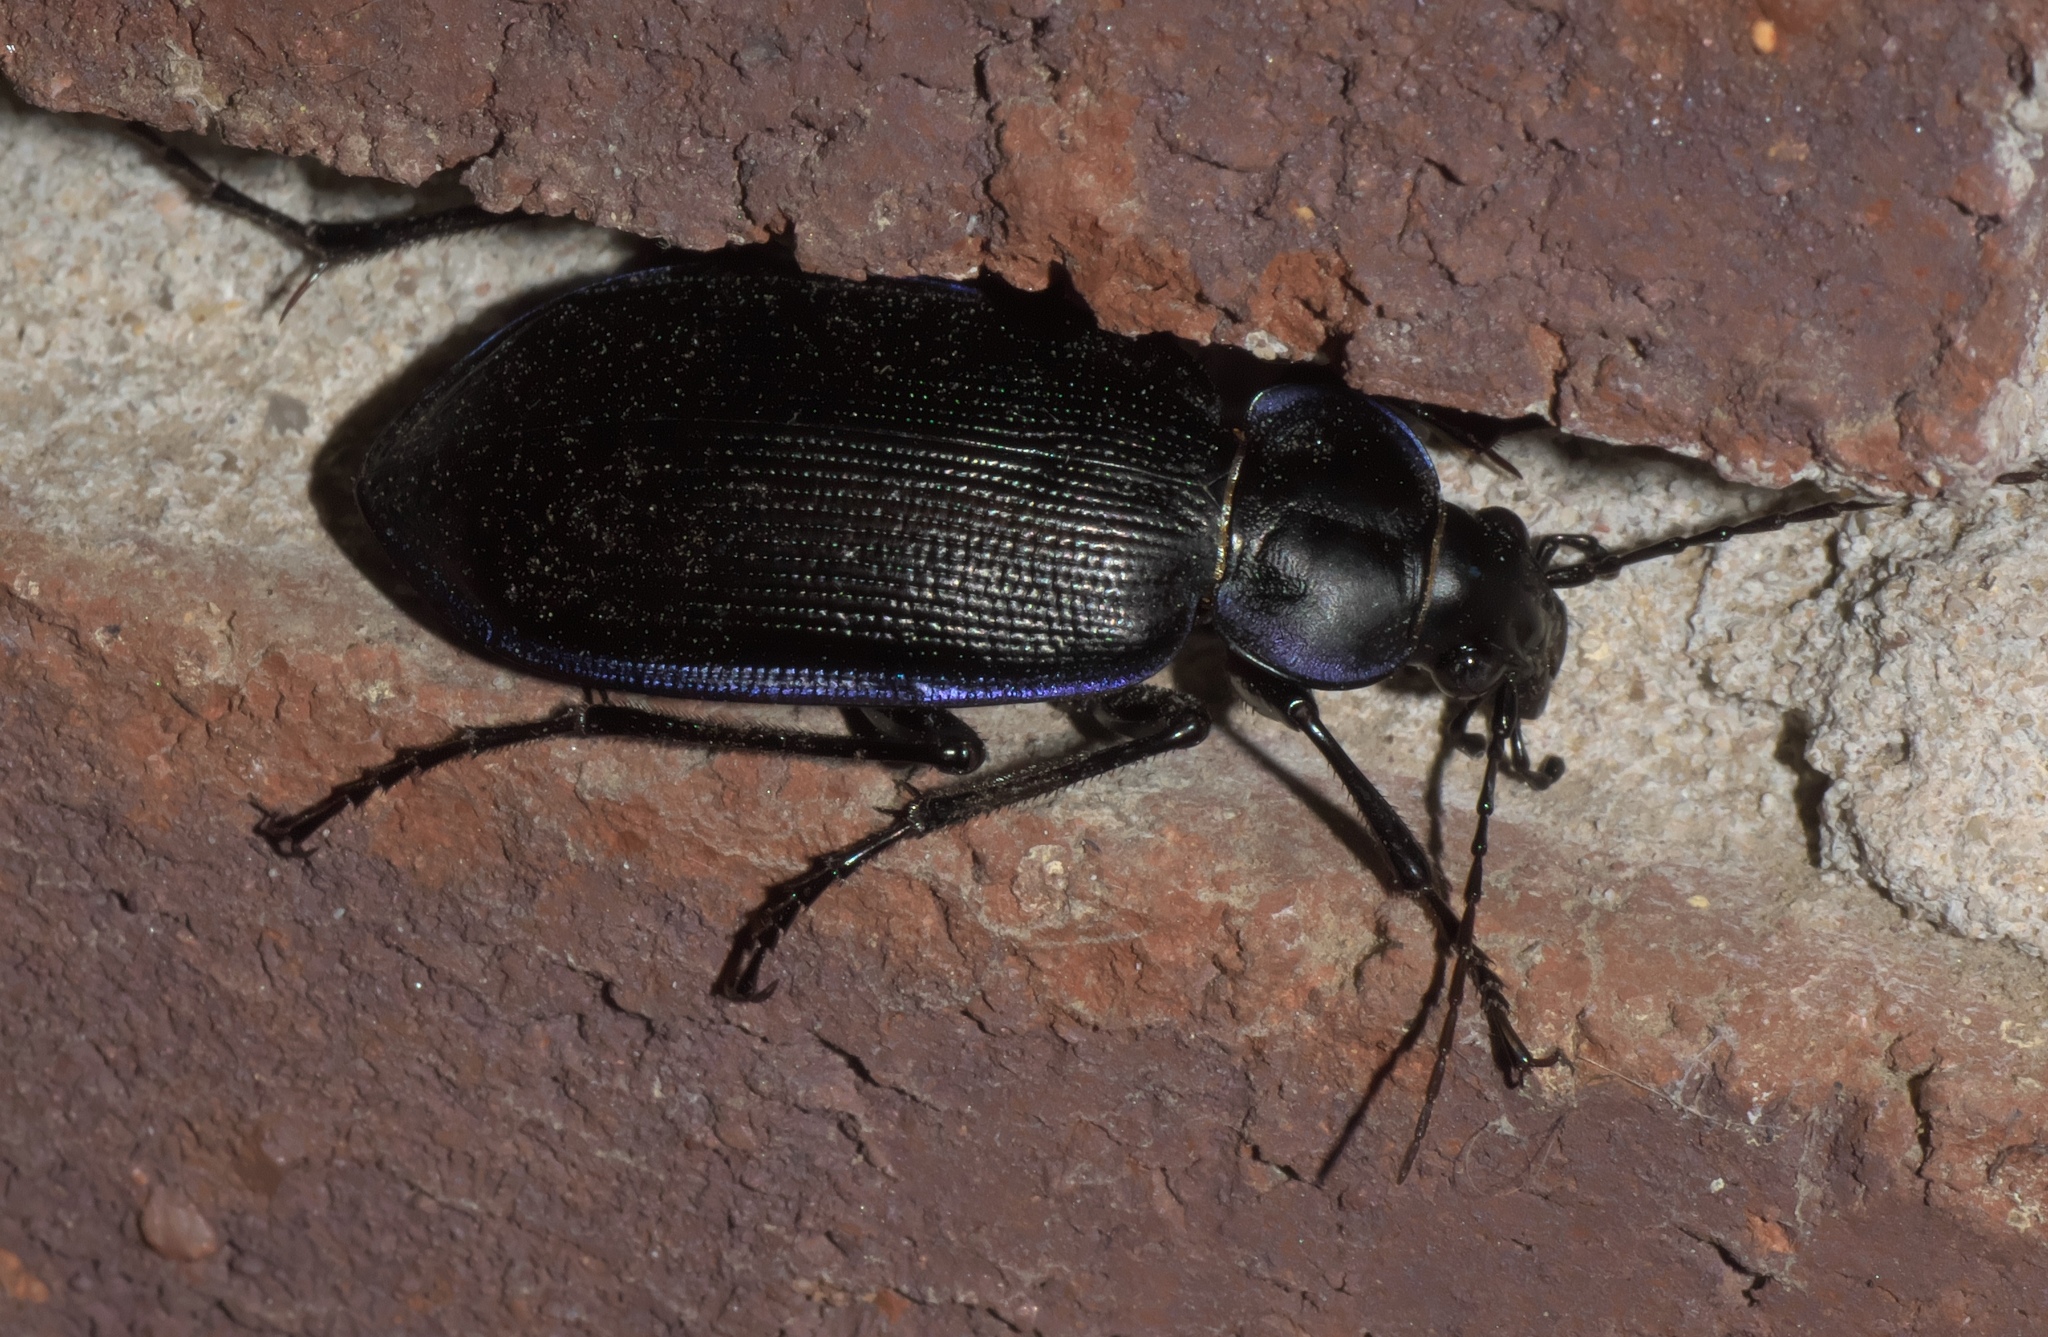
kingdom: Animalia
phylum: Arthropoda
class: Insecta
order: Coleoptera
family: Carabidae
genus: Calosoma
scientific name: Calosoma externum
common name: Narrow searcher beetle
